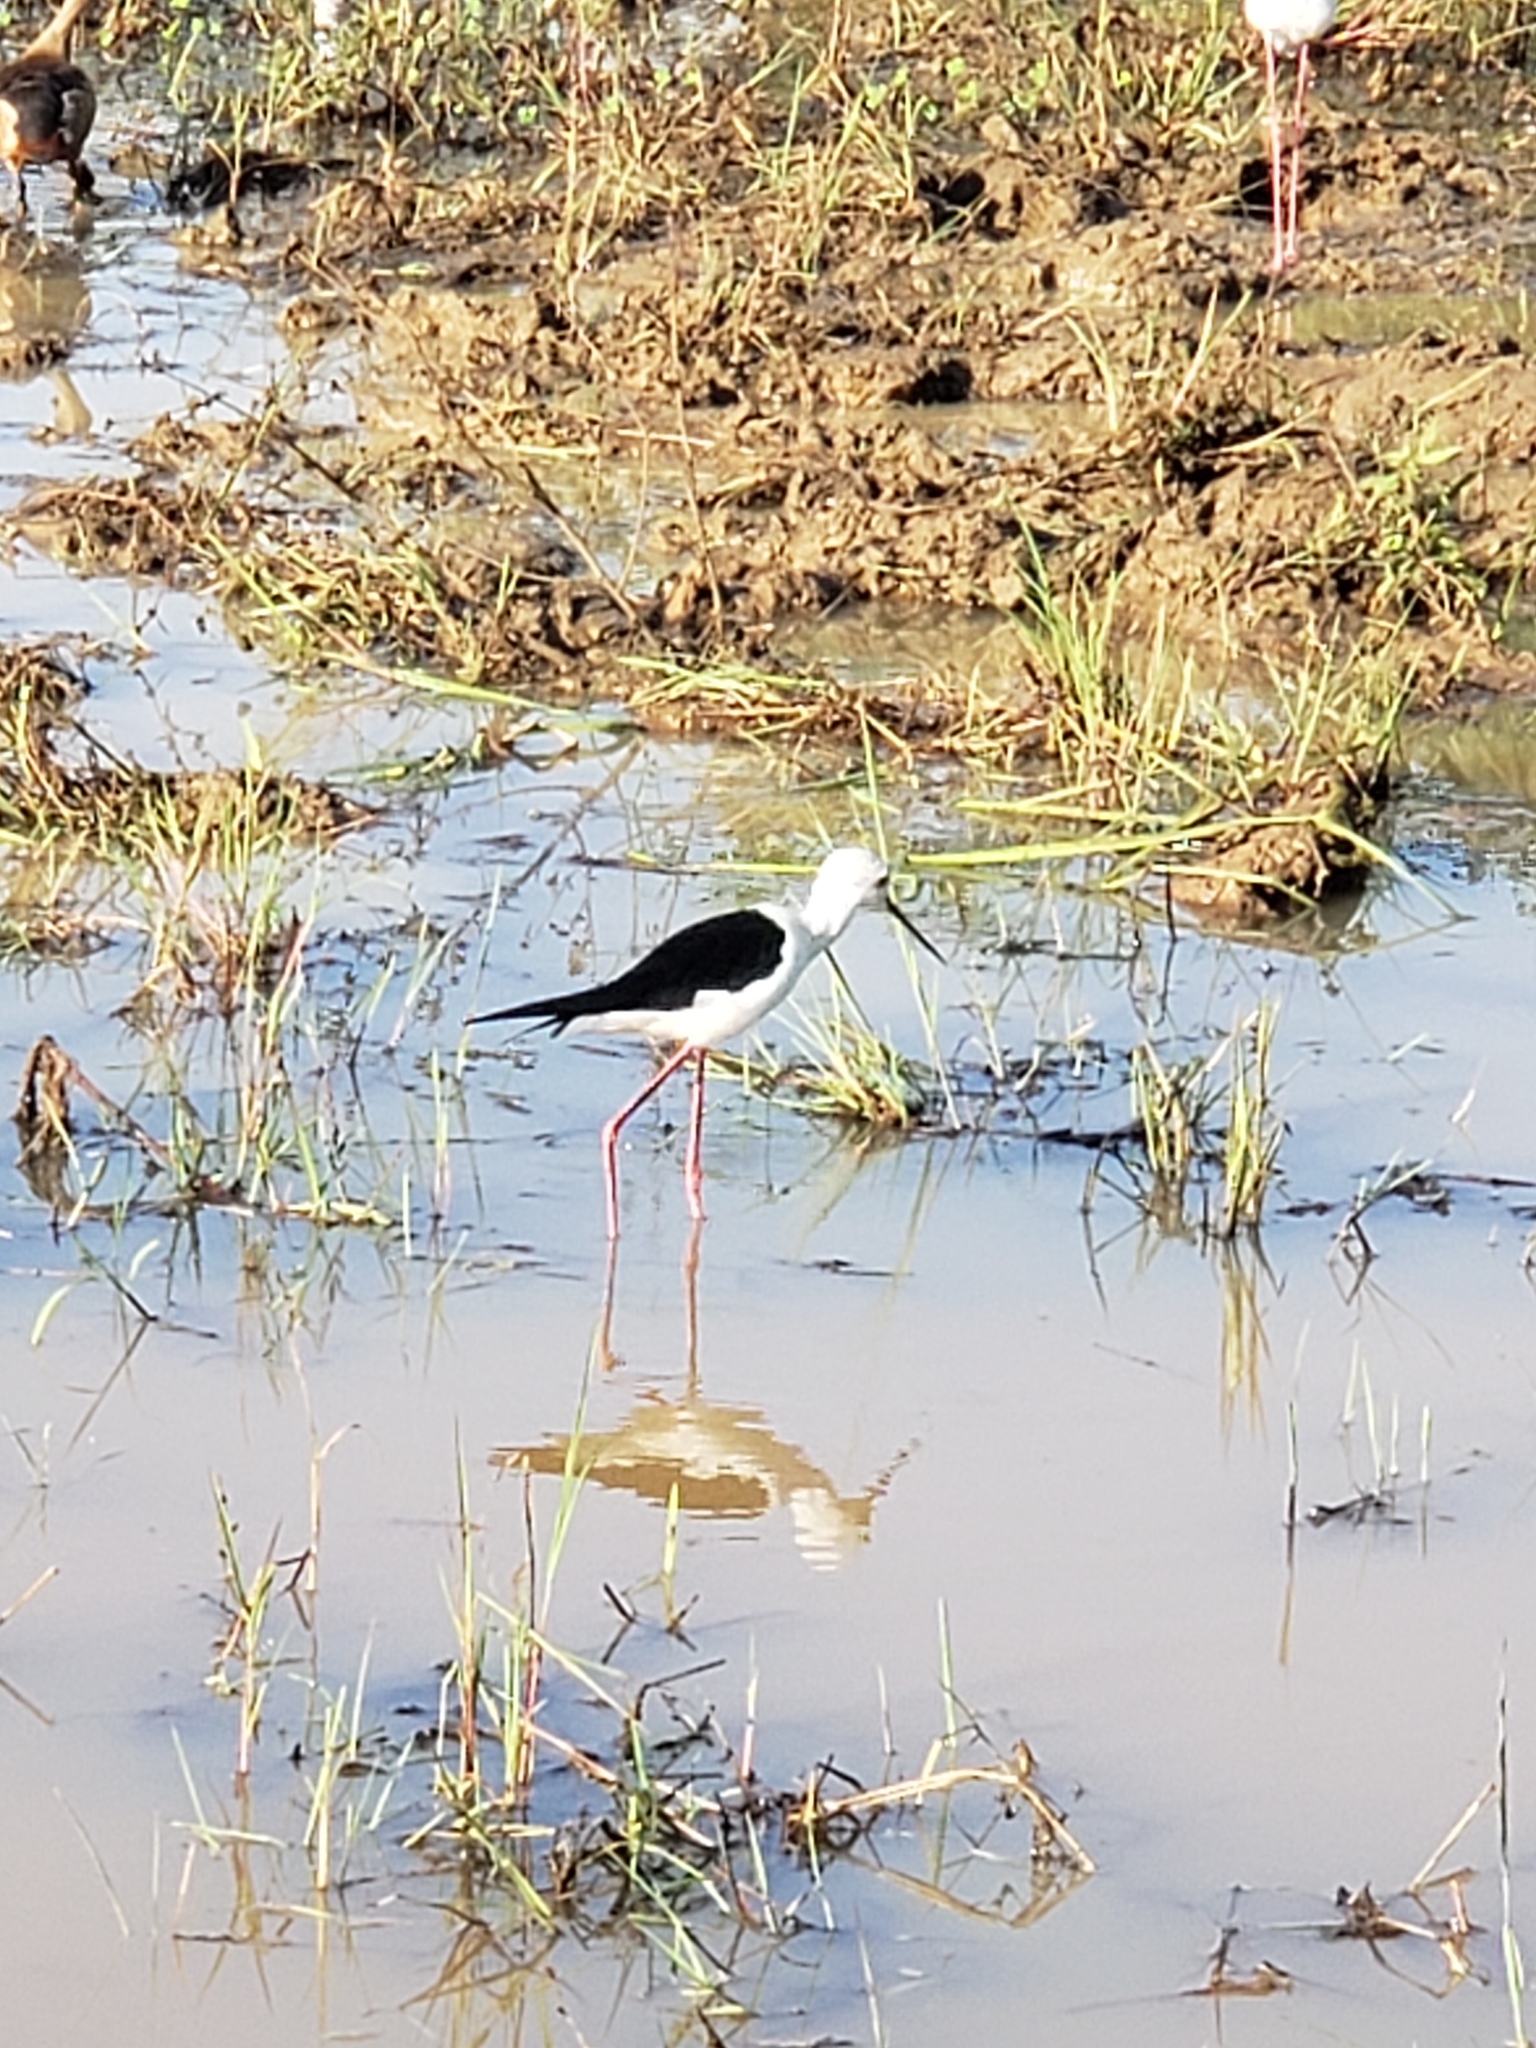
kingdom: Animalia
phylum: Chordata
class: Aves
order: Charadriiformes
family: Recurvirostridae
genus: Himantopus
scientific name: Himantopus himantopus
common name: Black-winged stilt
